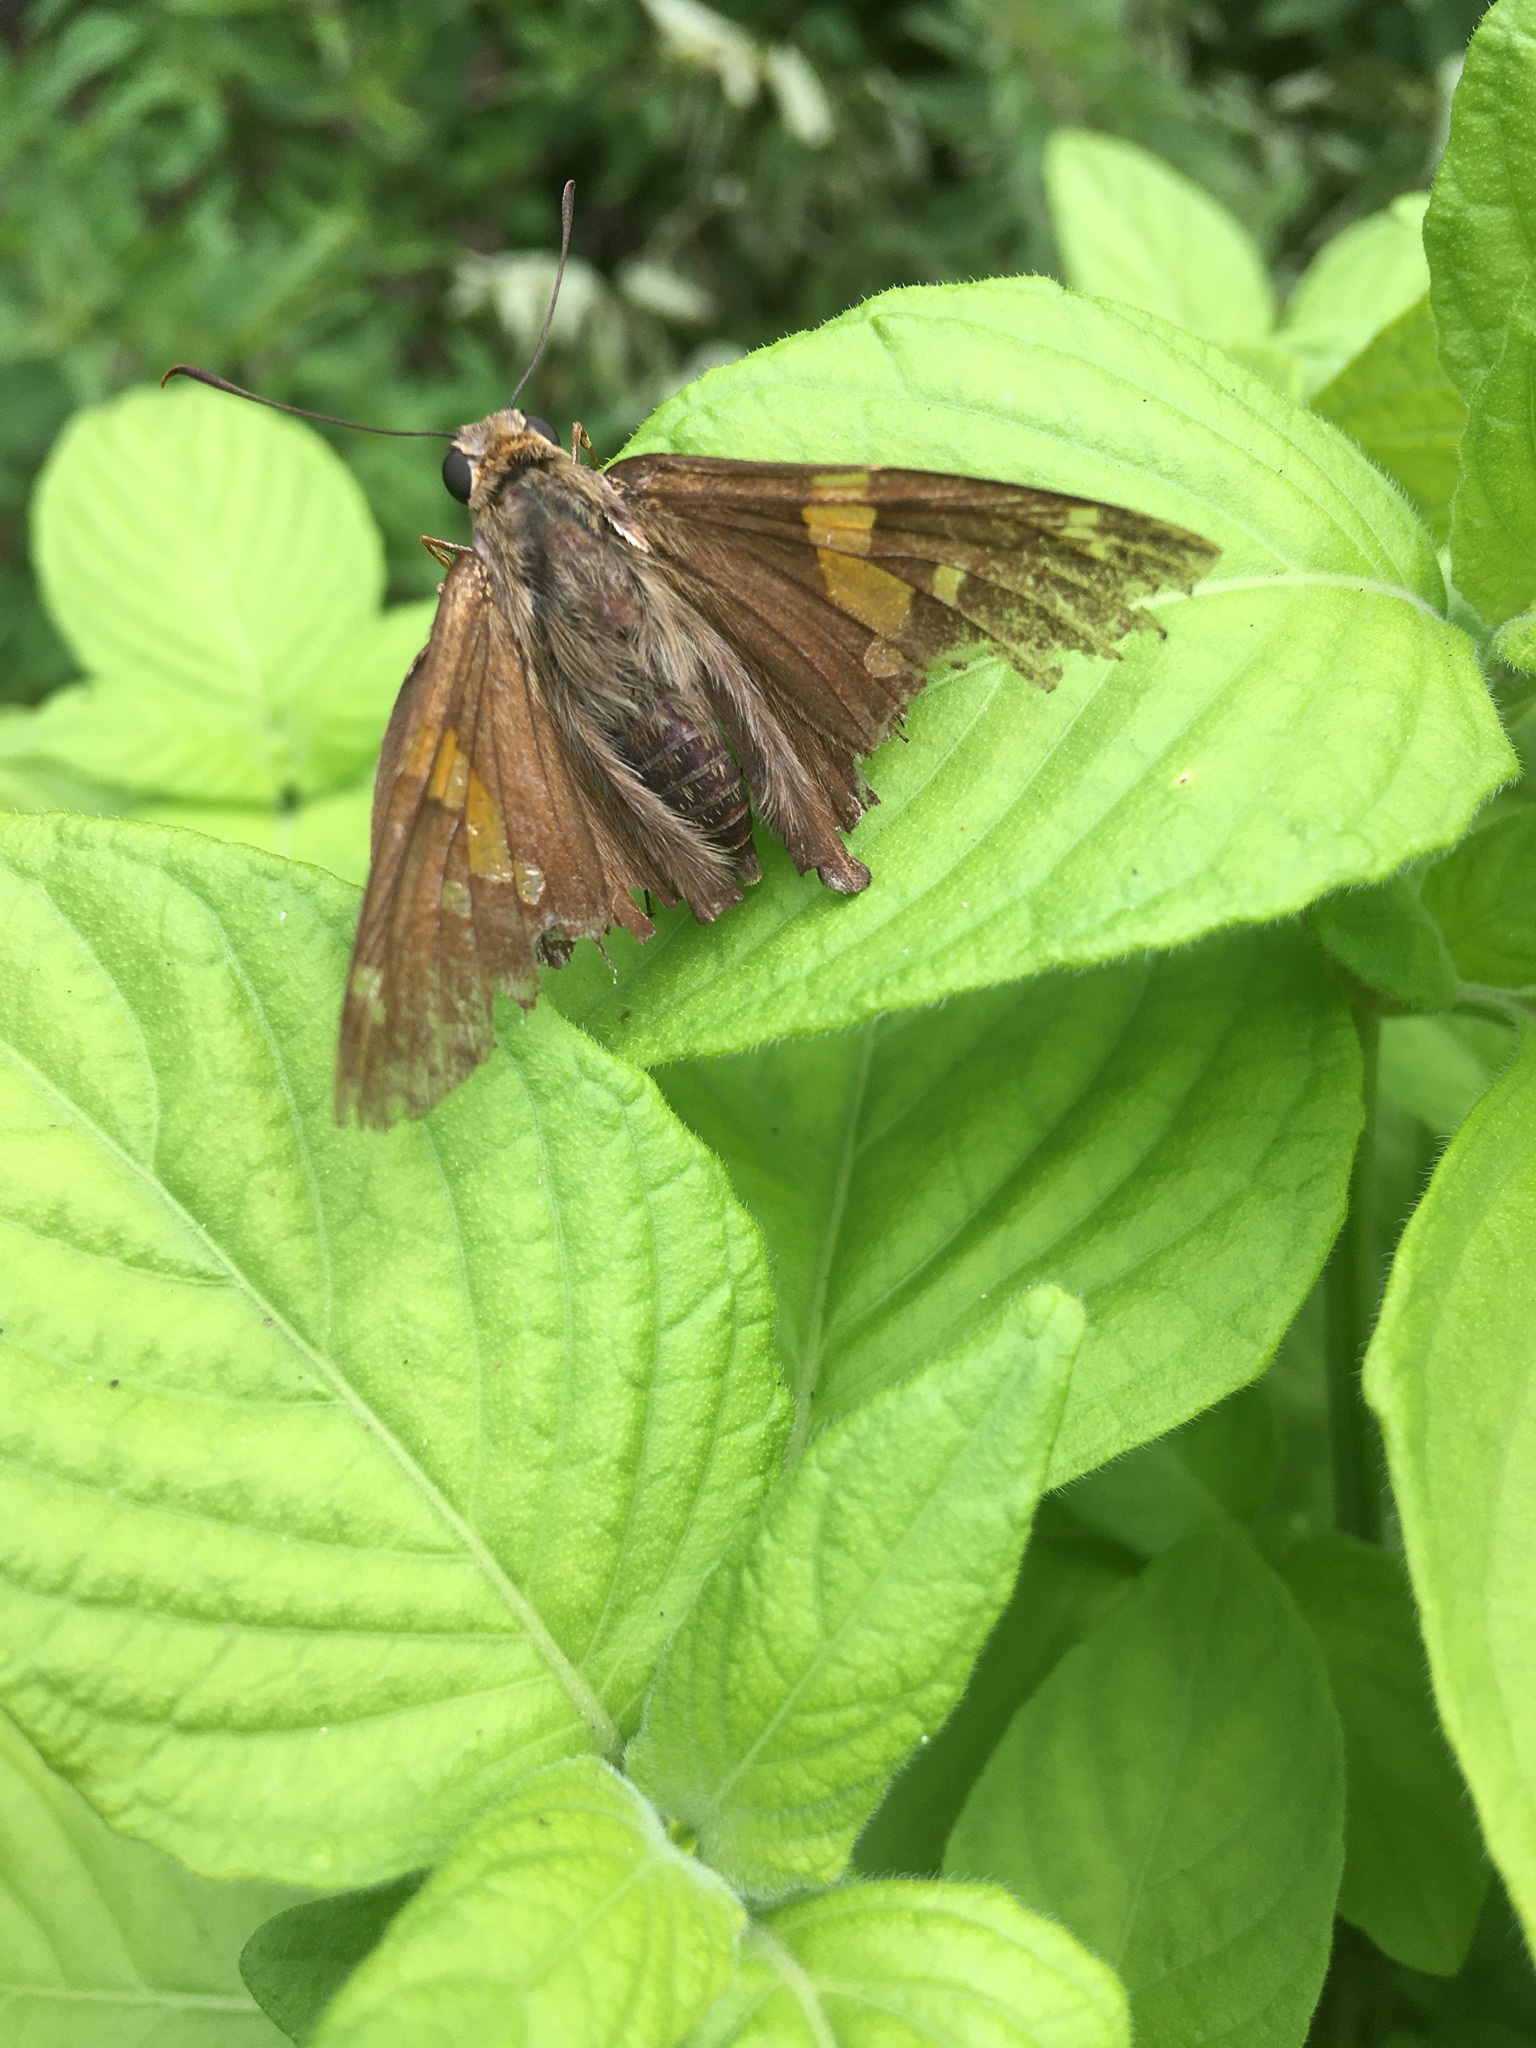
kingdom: Animalia
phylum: Arthropoda
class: Insecta
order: Lepidoptera
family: Hesperiidae
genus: Epargyreus
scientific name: Epargyreus clarus
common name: Silver-spotted skipper
